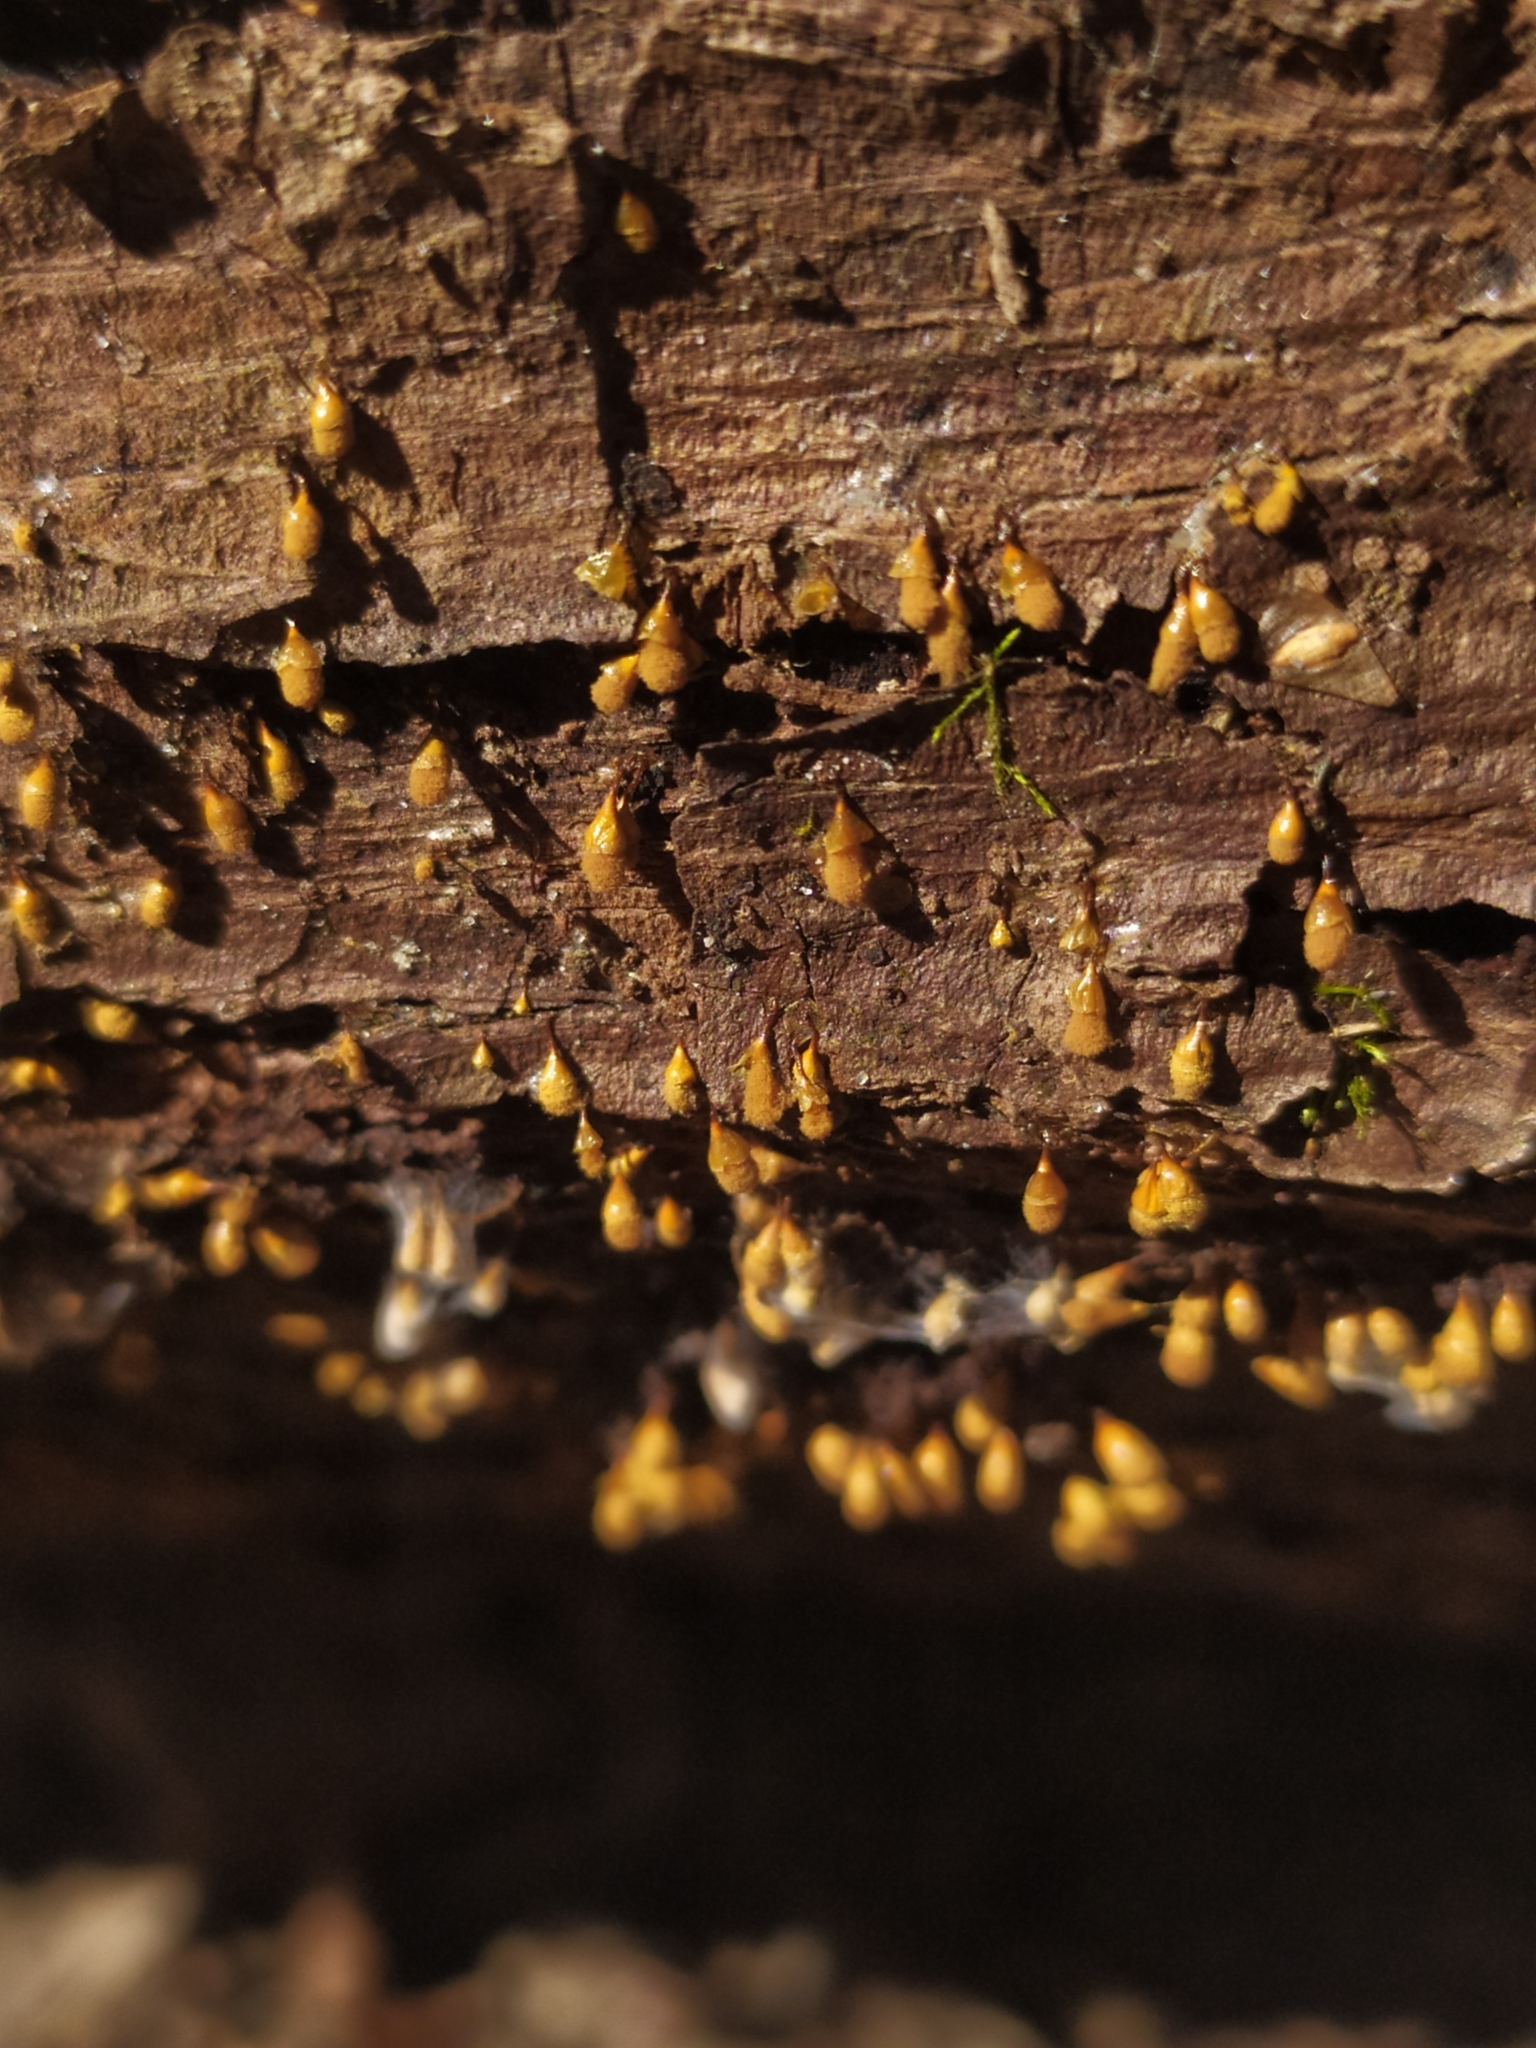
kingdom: Protozoa
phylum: Mycetozoa
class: Myxomycetes
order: Trichiales
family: Arcyriaceae
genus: Hemitrichia
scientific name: Hemitrichia calyculata
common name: Push pin slime mold
